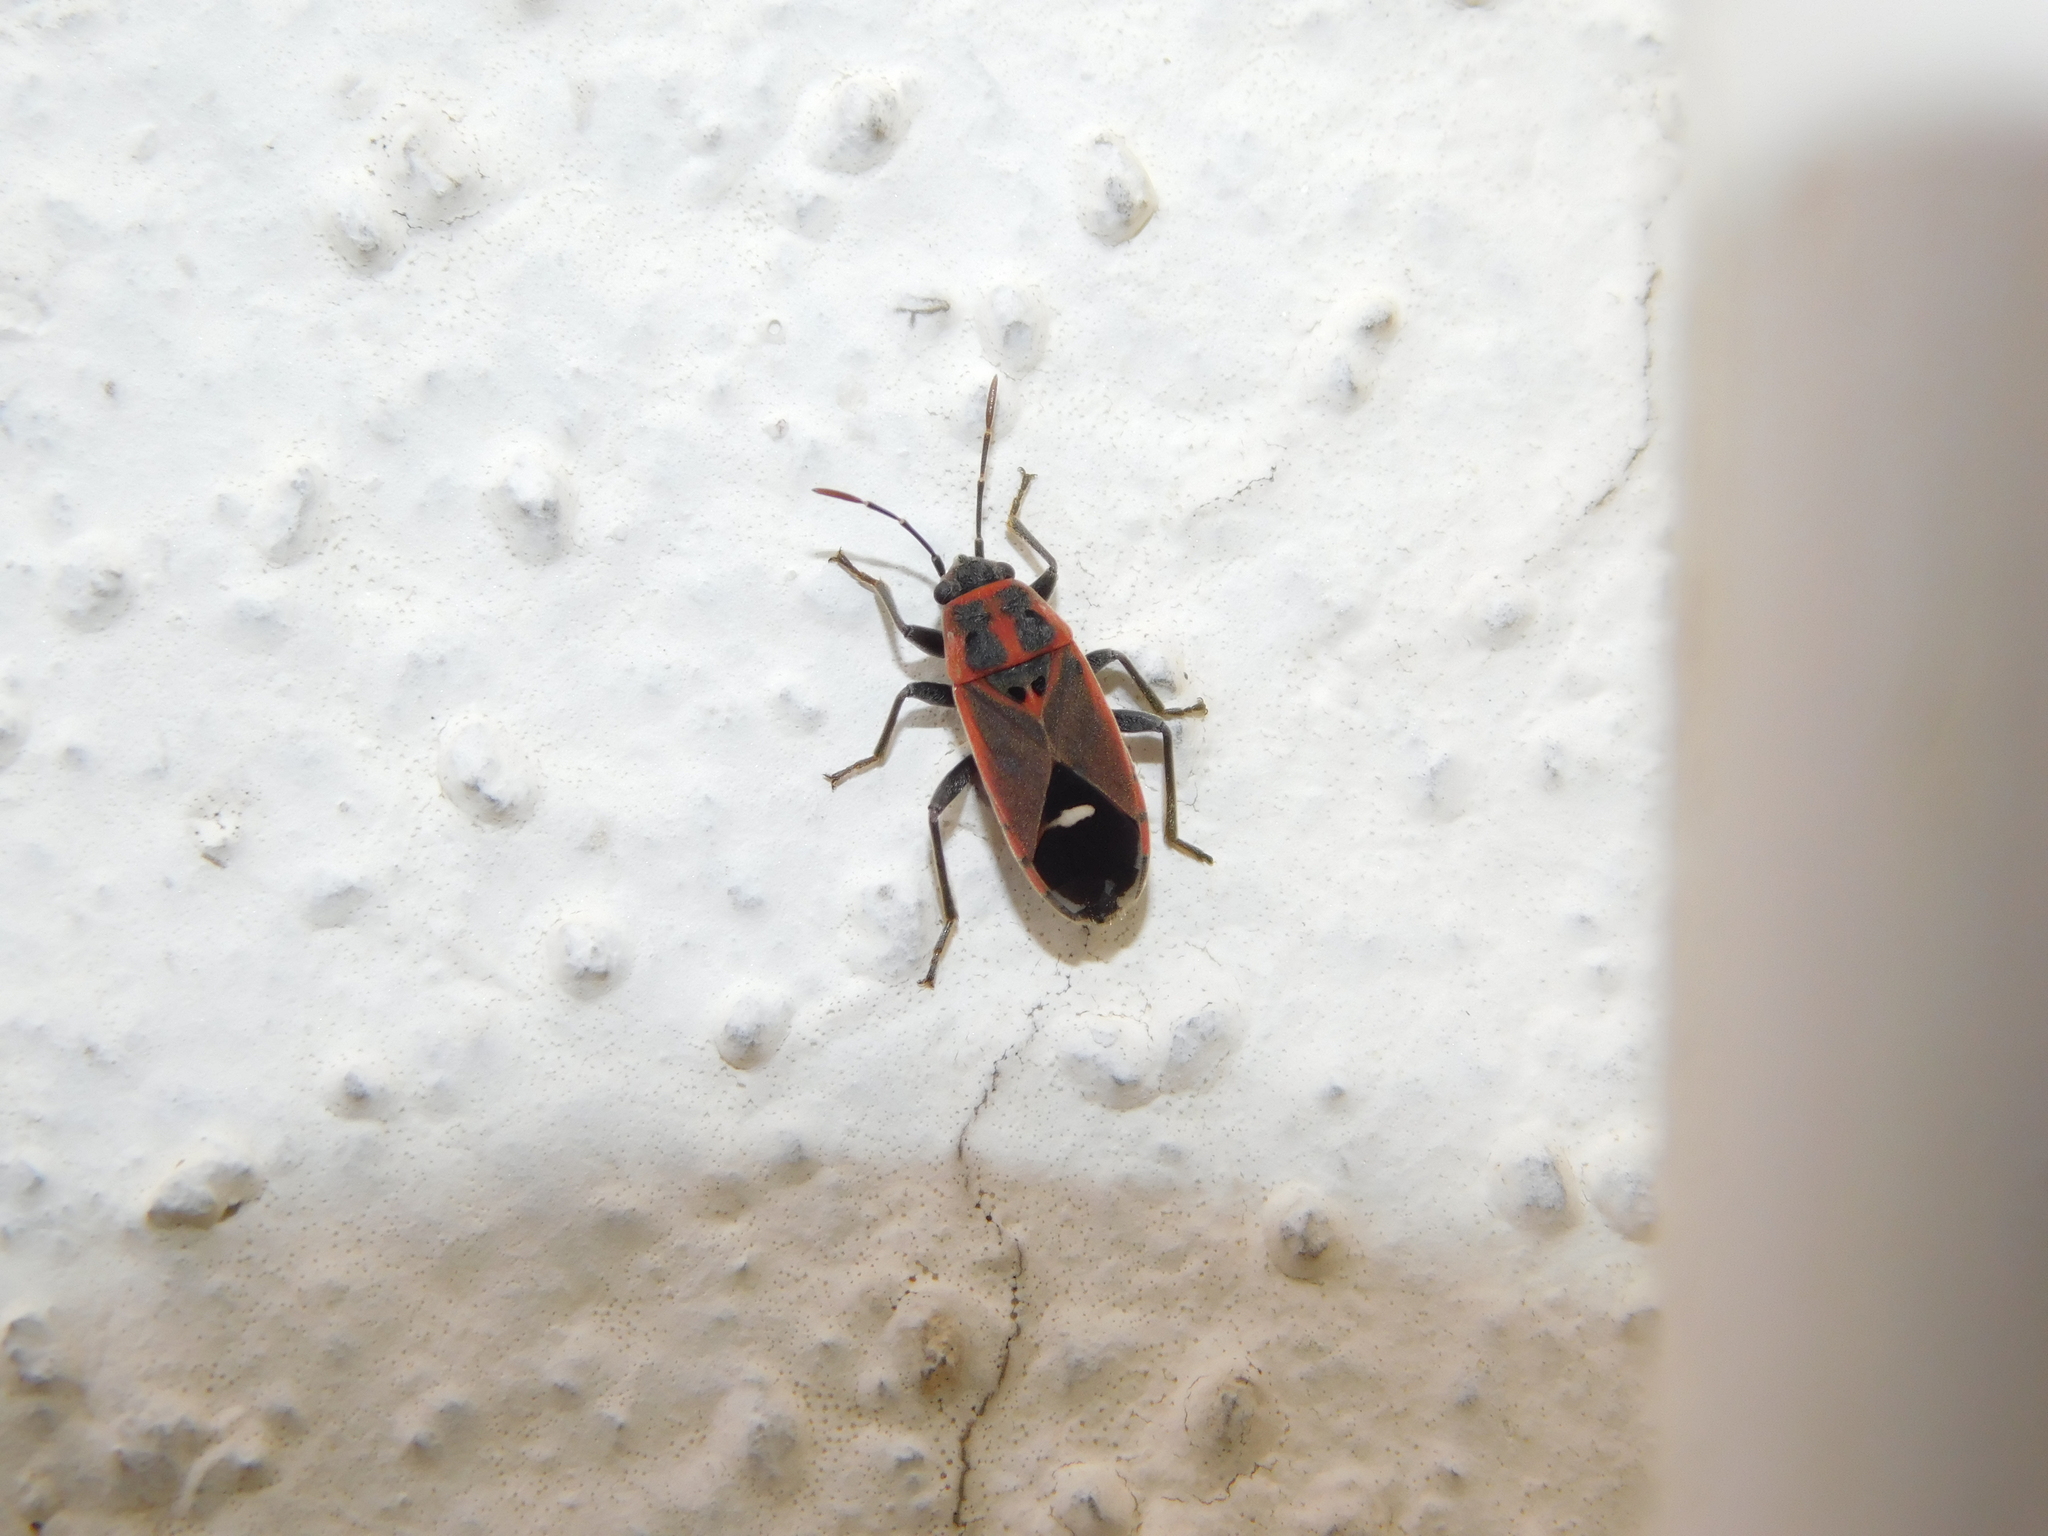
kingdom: Animalia
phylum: Arthropoda
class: Insecta
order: Hemiptera
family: Lygaeidae
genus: Aspilocoryphus
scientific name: Aspilocoryphus mendicus
